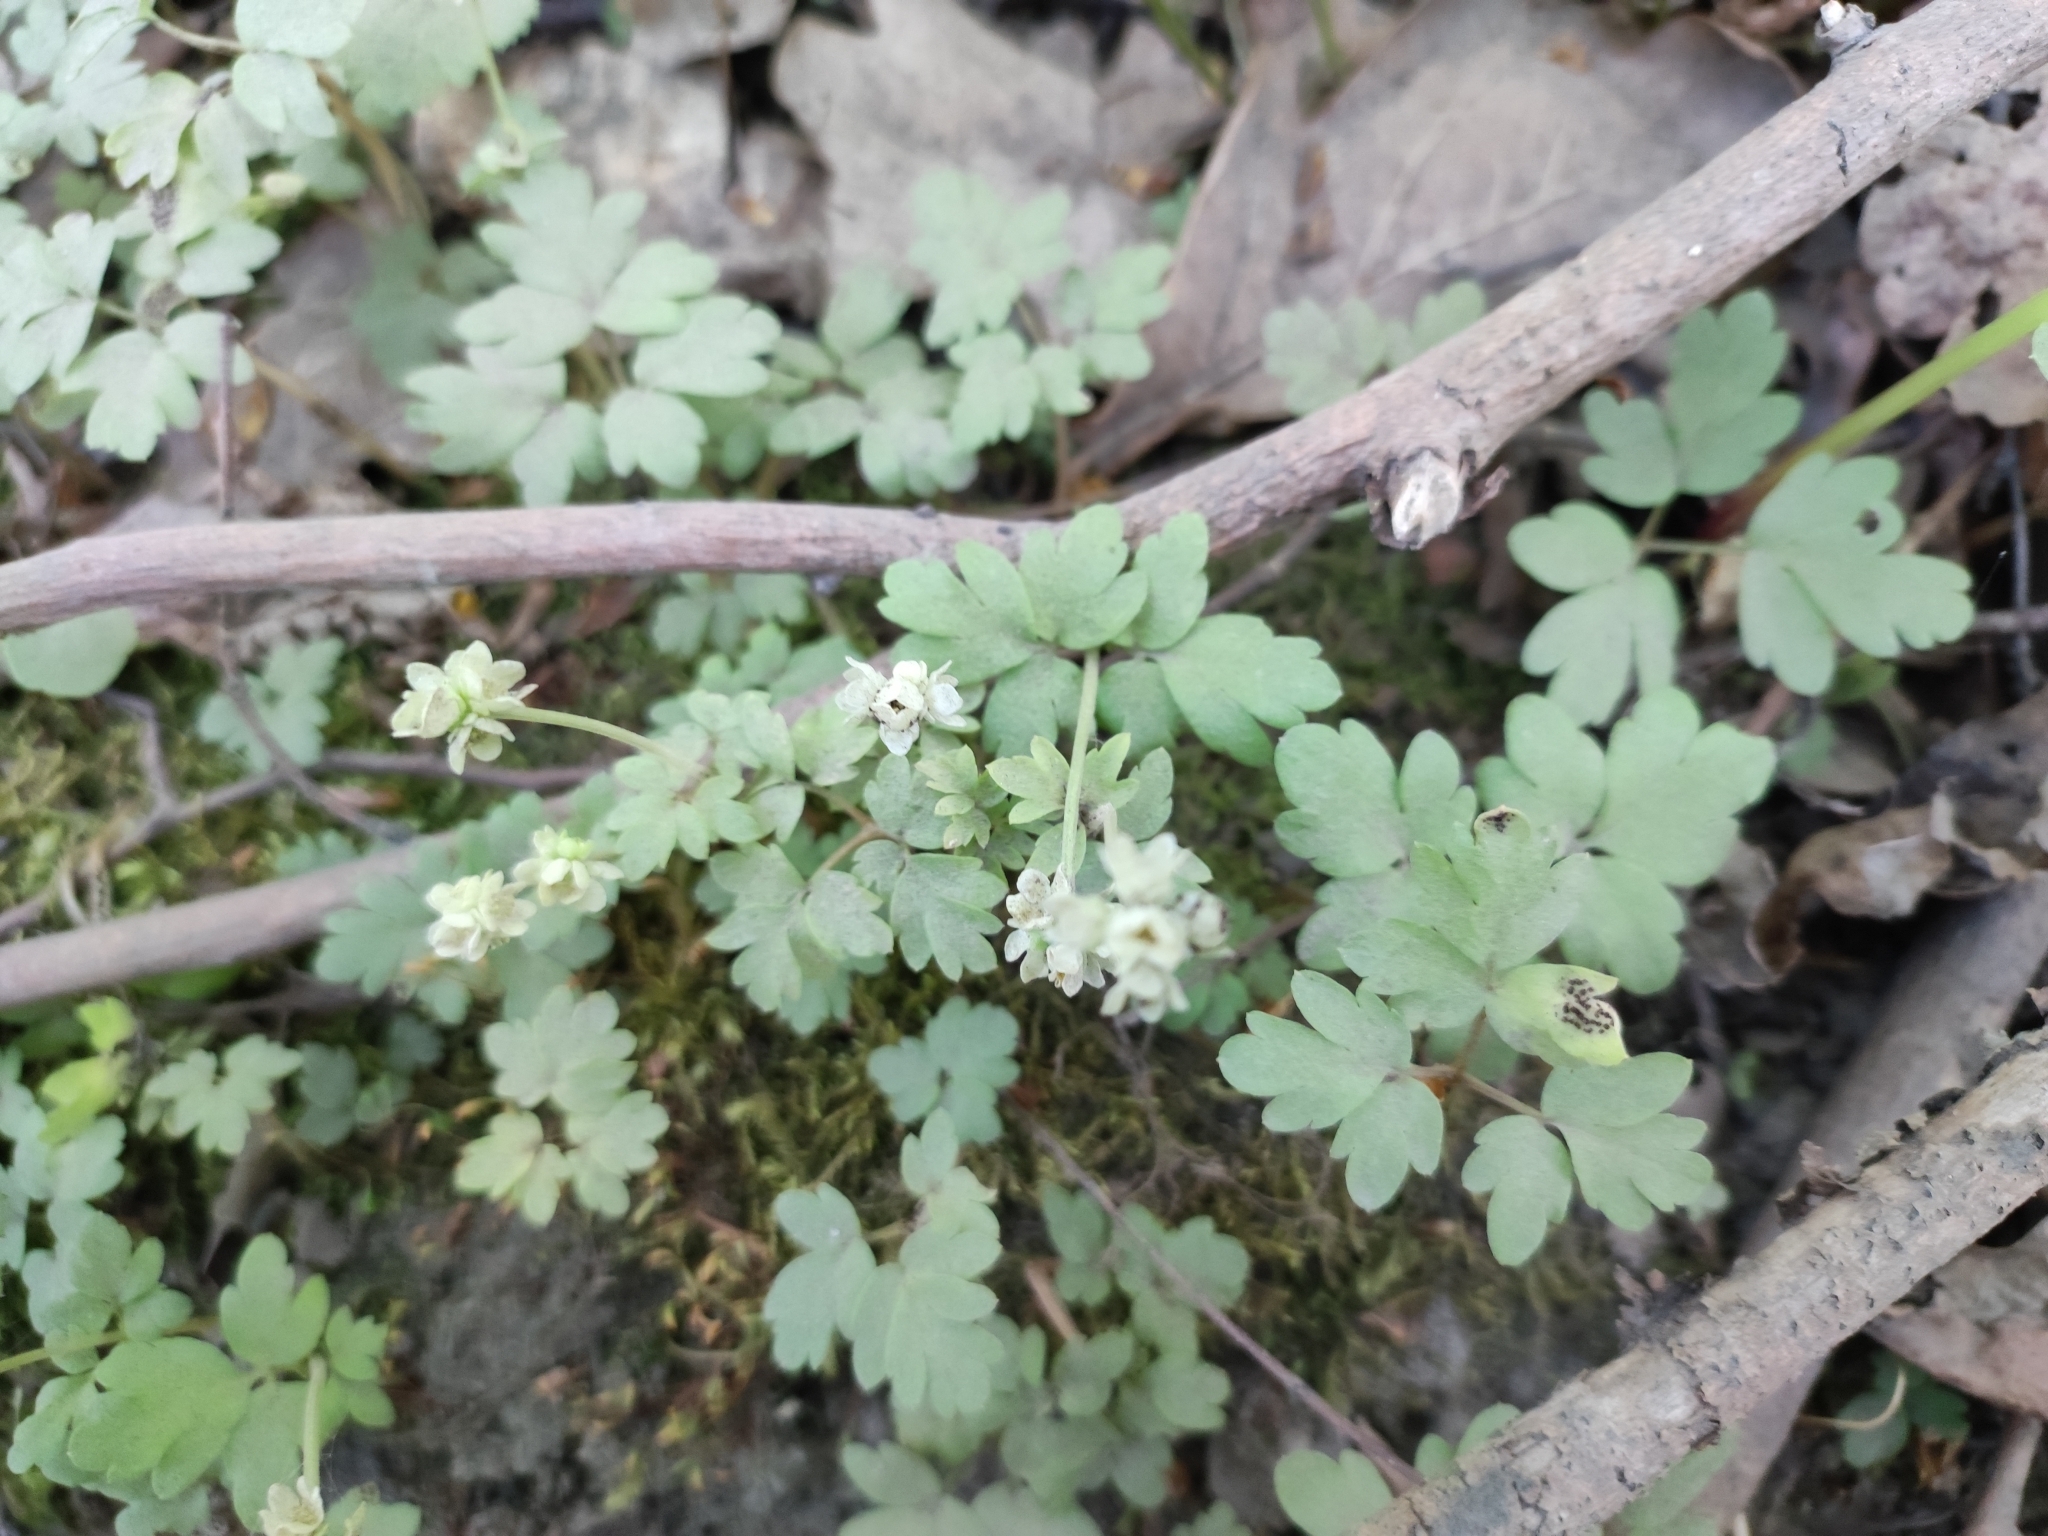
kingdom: Plantae
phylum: Tracheophyta
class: Magnoliopsida
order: Dipsacales
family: Viburnaceae
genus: Adoxa
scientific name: Adoxa moschatellina
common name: Moschatel
